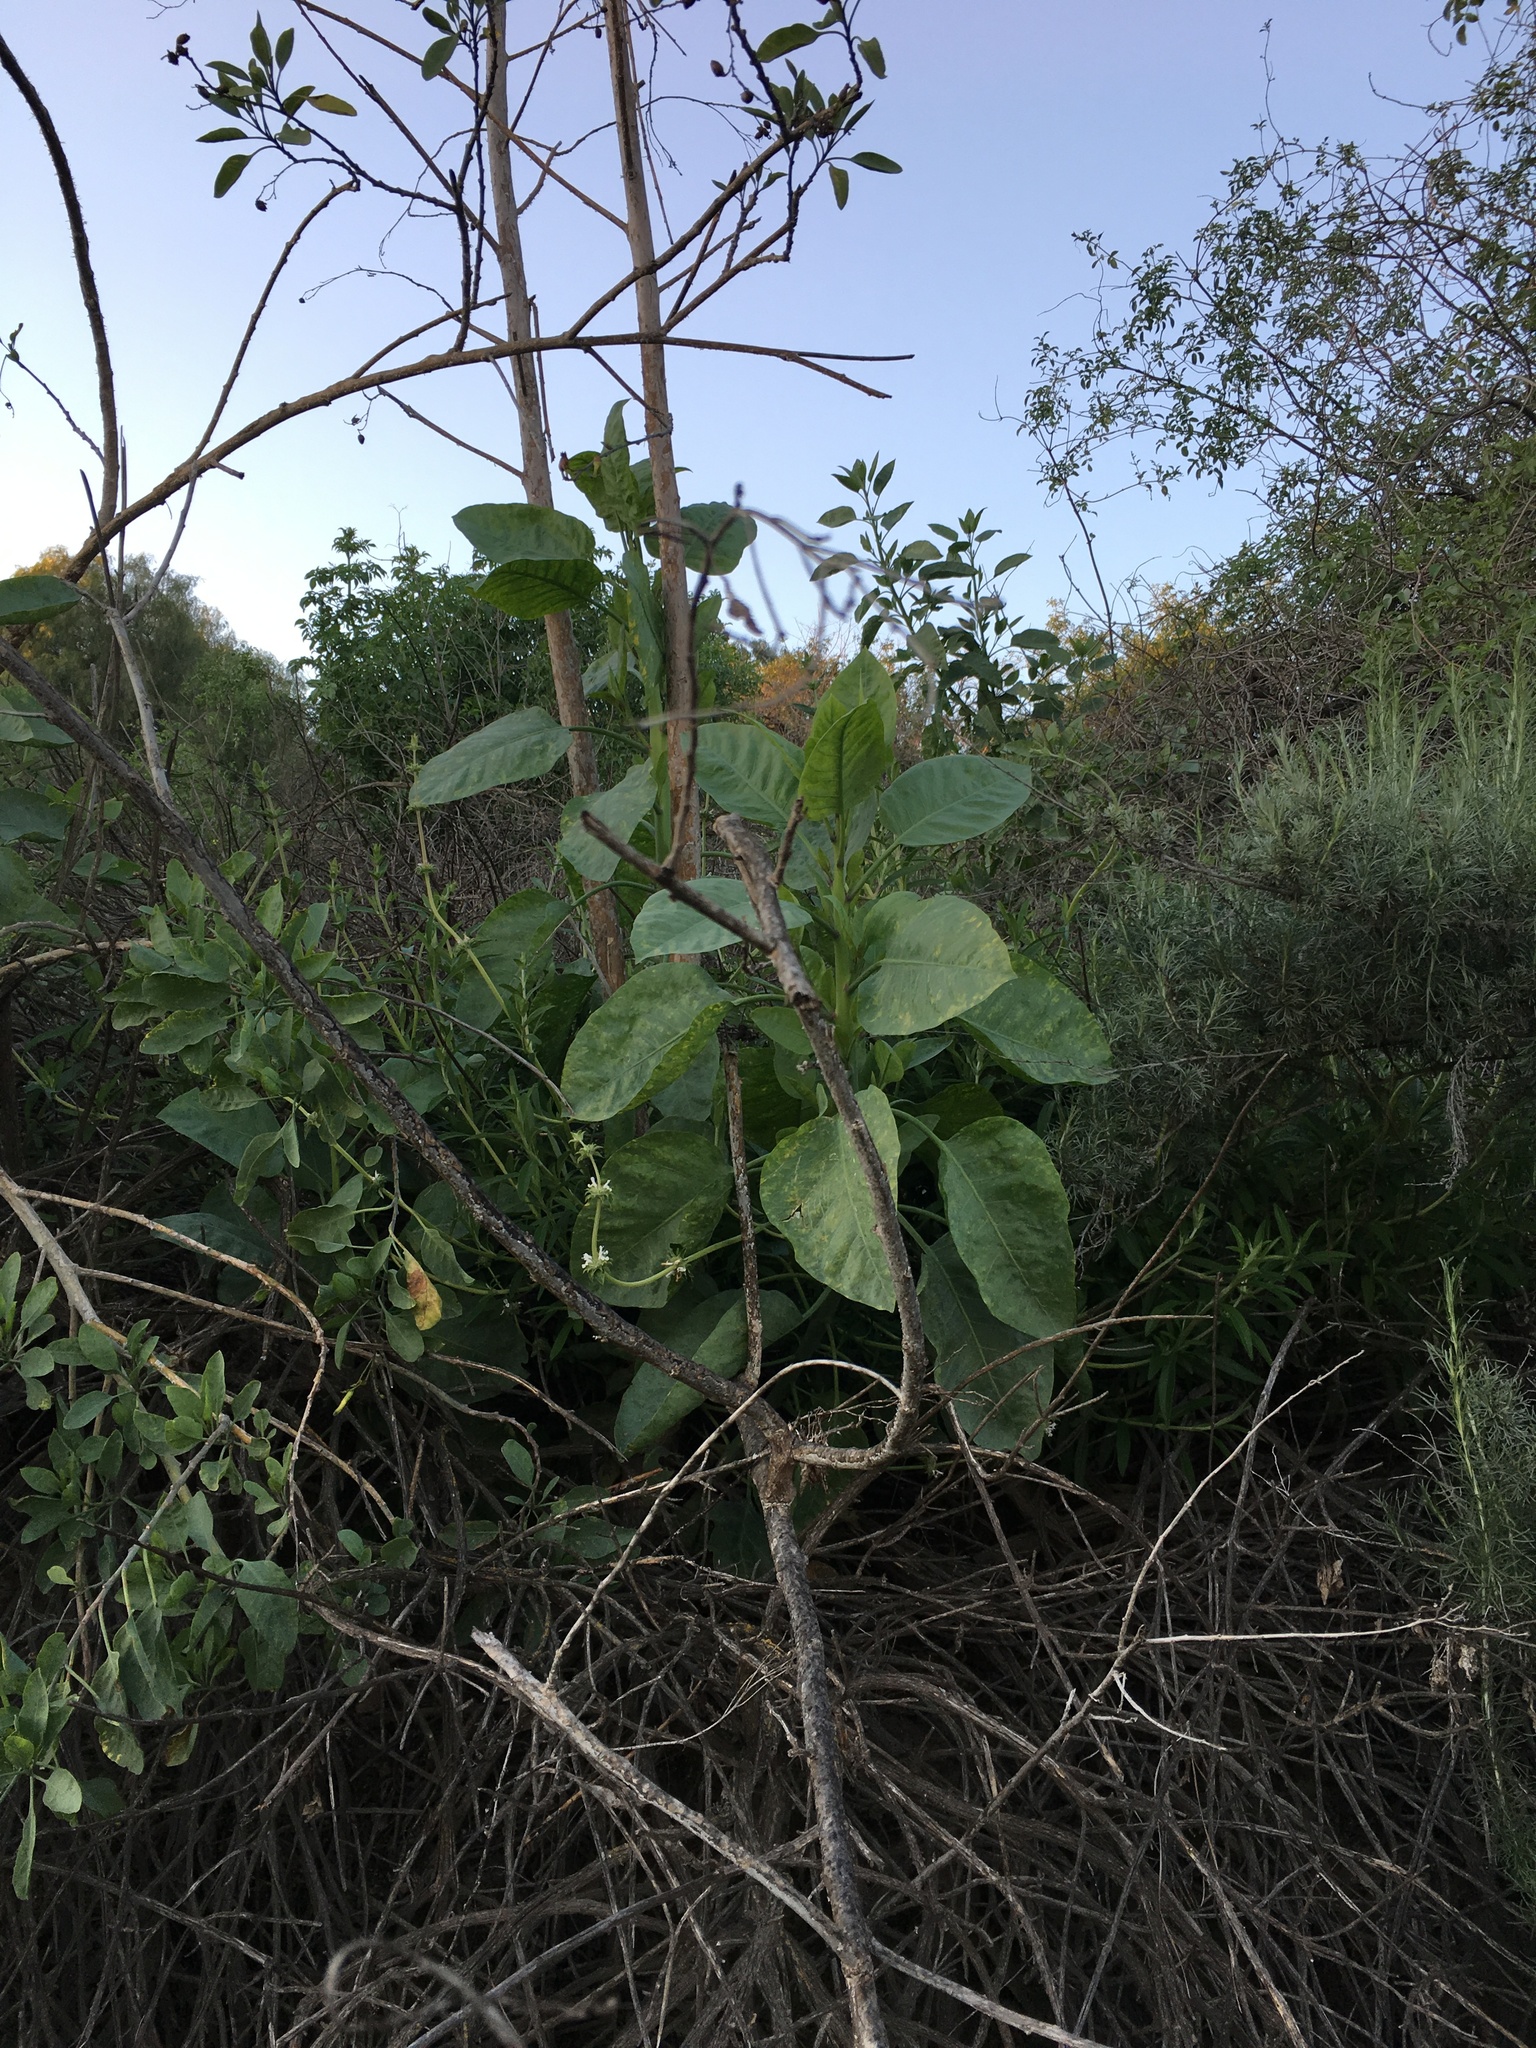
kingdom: Plantae
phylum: Tracheophyta
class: Magnoliopsida
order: Solanales
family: Solanaceae
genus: Nicotiana
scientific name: Nicotiana glauca
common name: Tree tobacco
